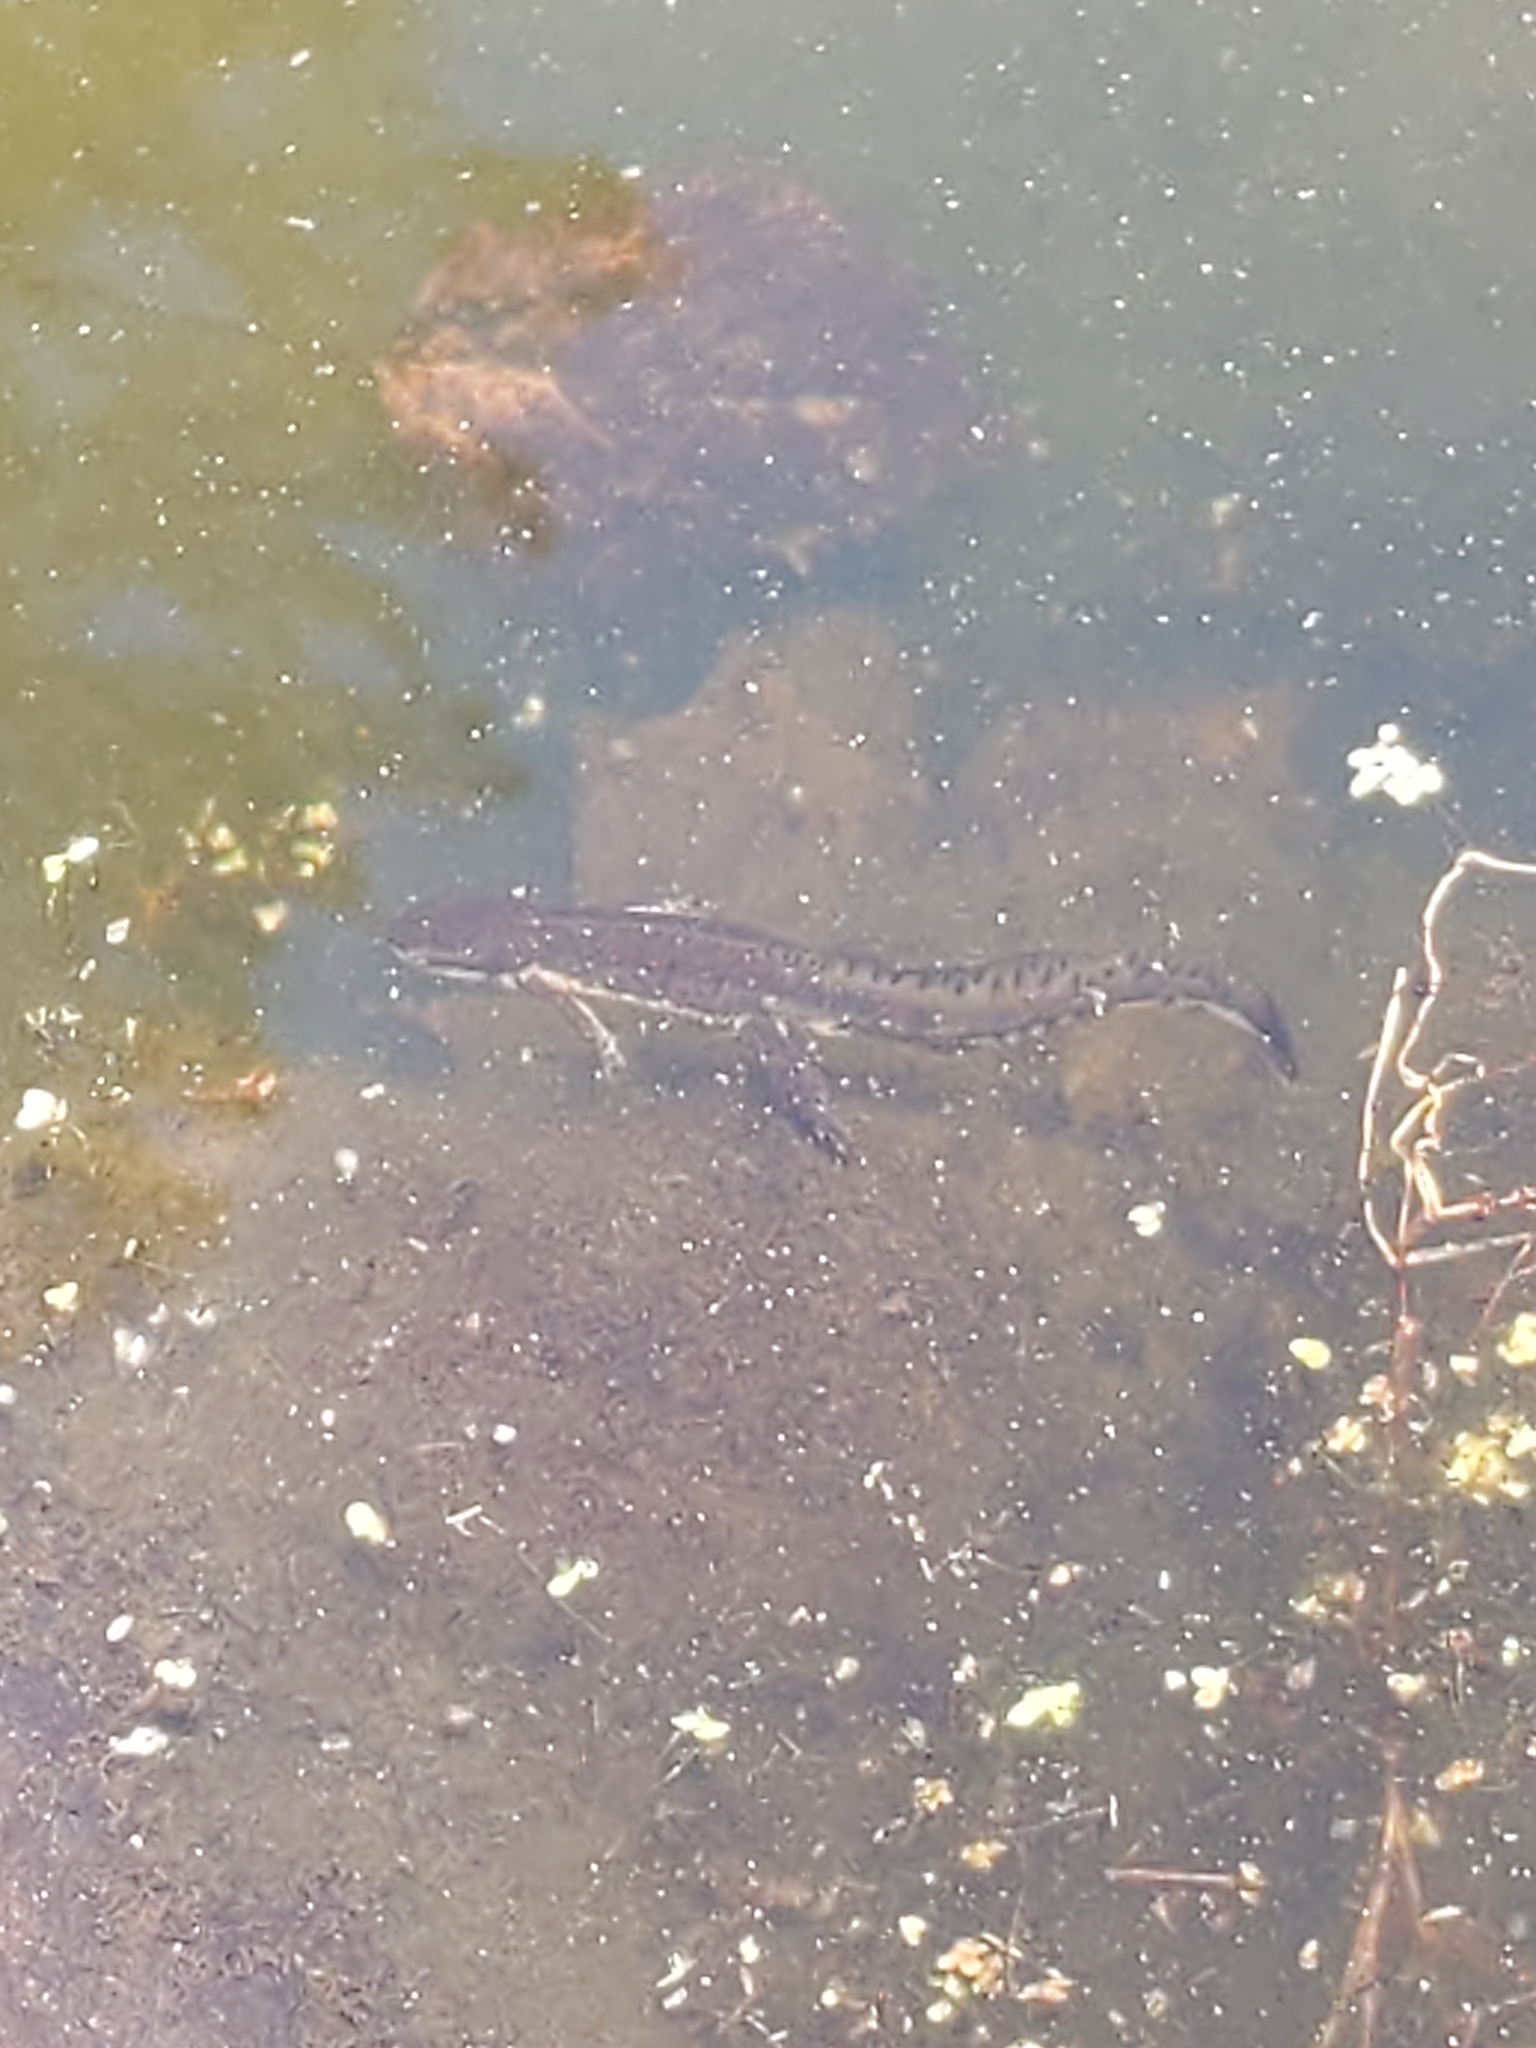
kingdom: Animalia
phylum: Chordata
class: Amphibia
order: Caudata
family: Salamandridae
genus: Notophthalmus
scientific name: Notophthalmus viridescens
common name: Eastern newt
